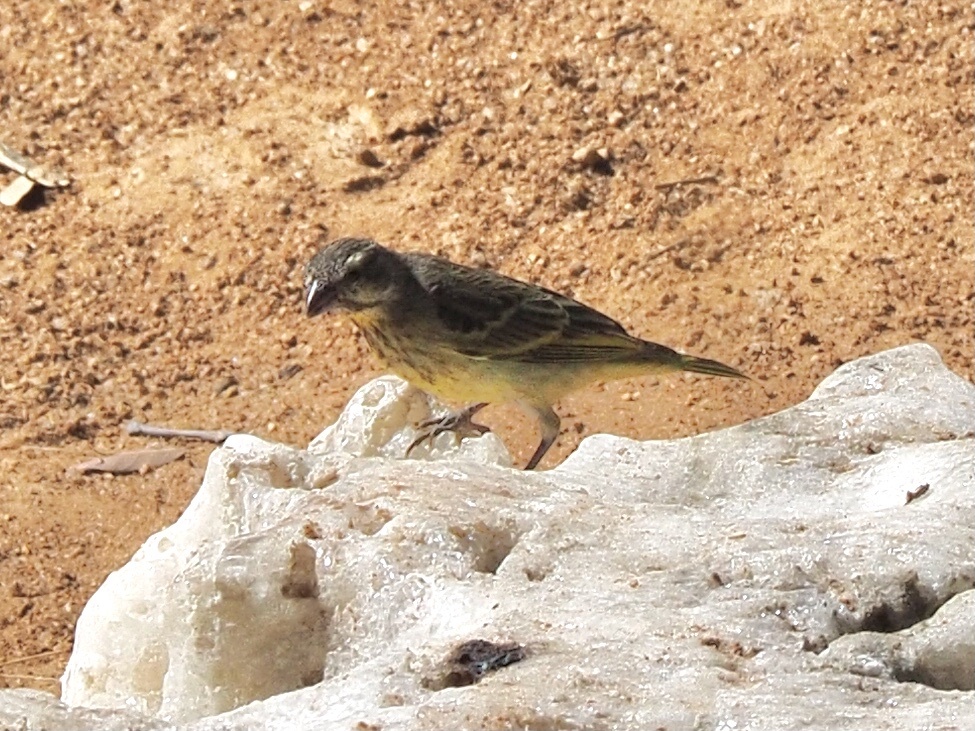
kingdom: Animalia
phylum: Chordata
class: Aves
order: Passeriformes
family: Fringillidae
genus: Crithagra
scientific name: Crithagra mozambica
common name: Yellow-fronted canary
